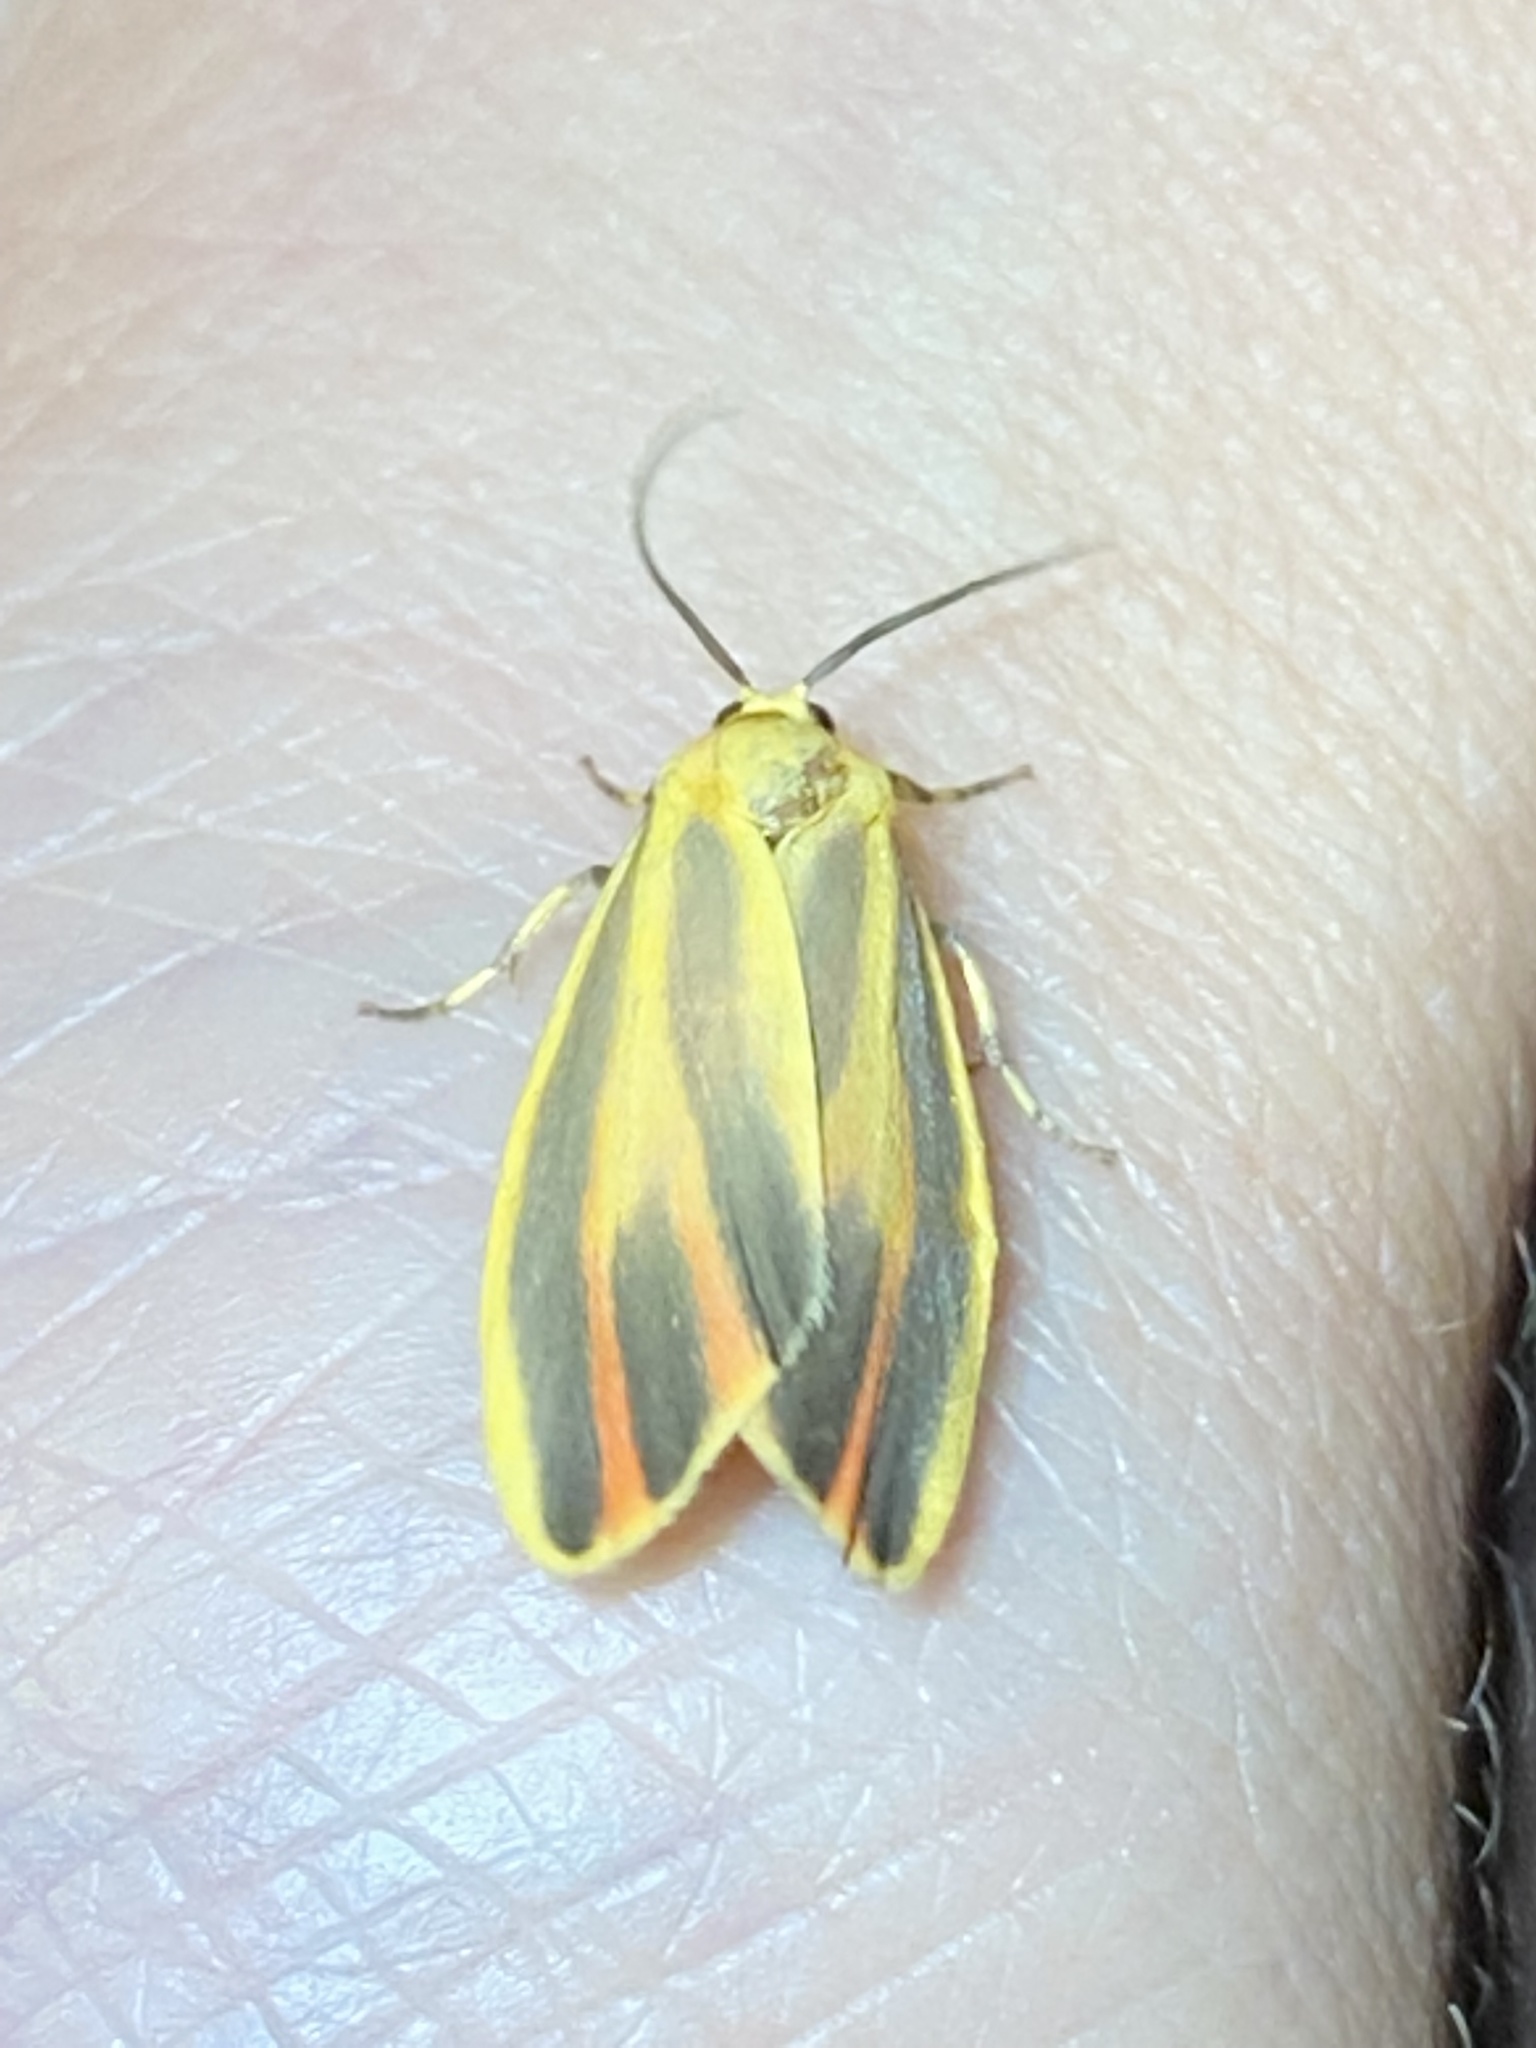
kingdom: Animalia
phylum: Arthropoda
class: Insecta
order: Lepidoptera
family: Erebidae
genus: Hypoprepia
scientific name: Hypoprepia fucosa
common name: Painted lichen moth
